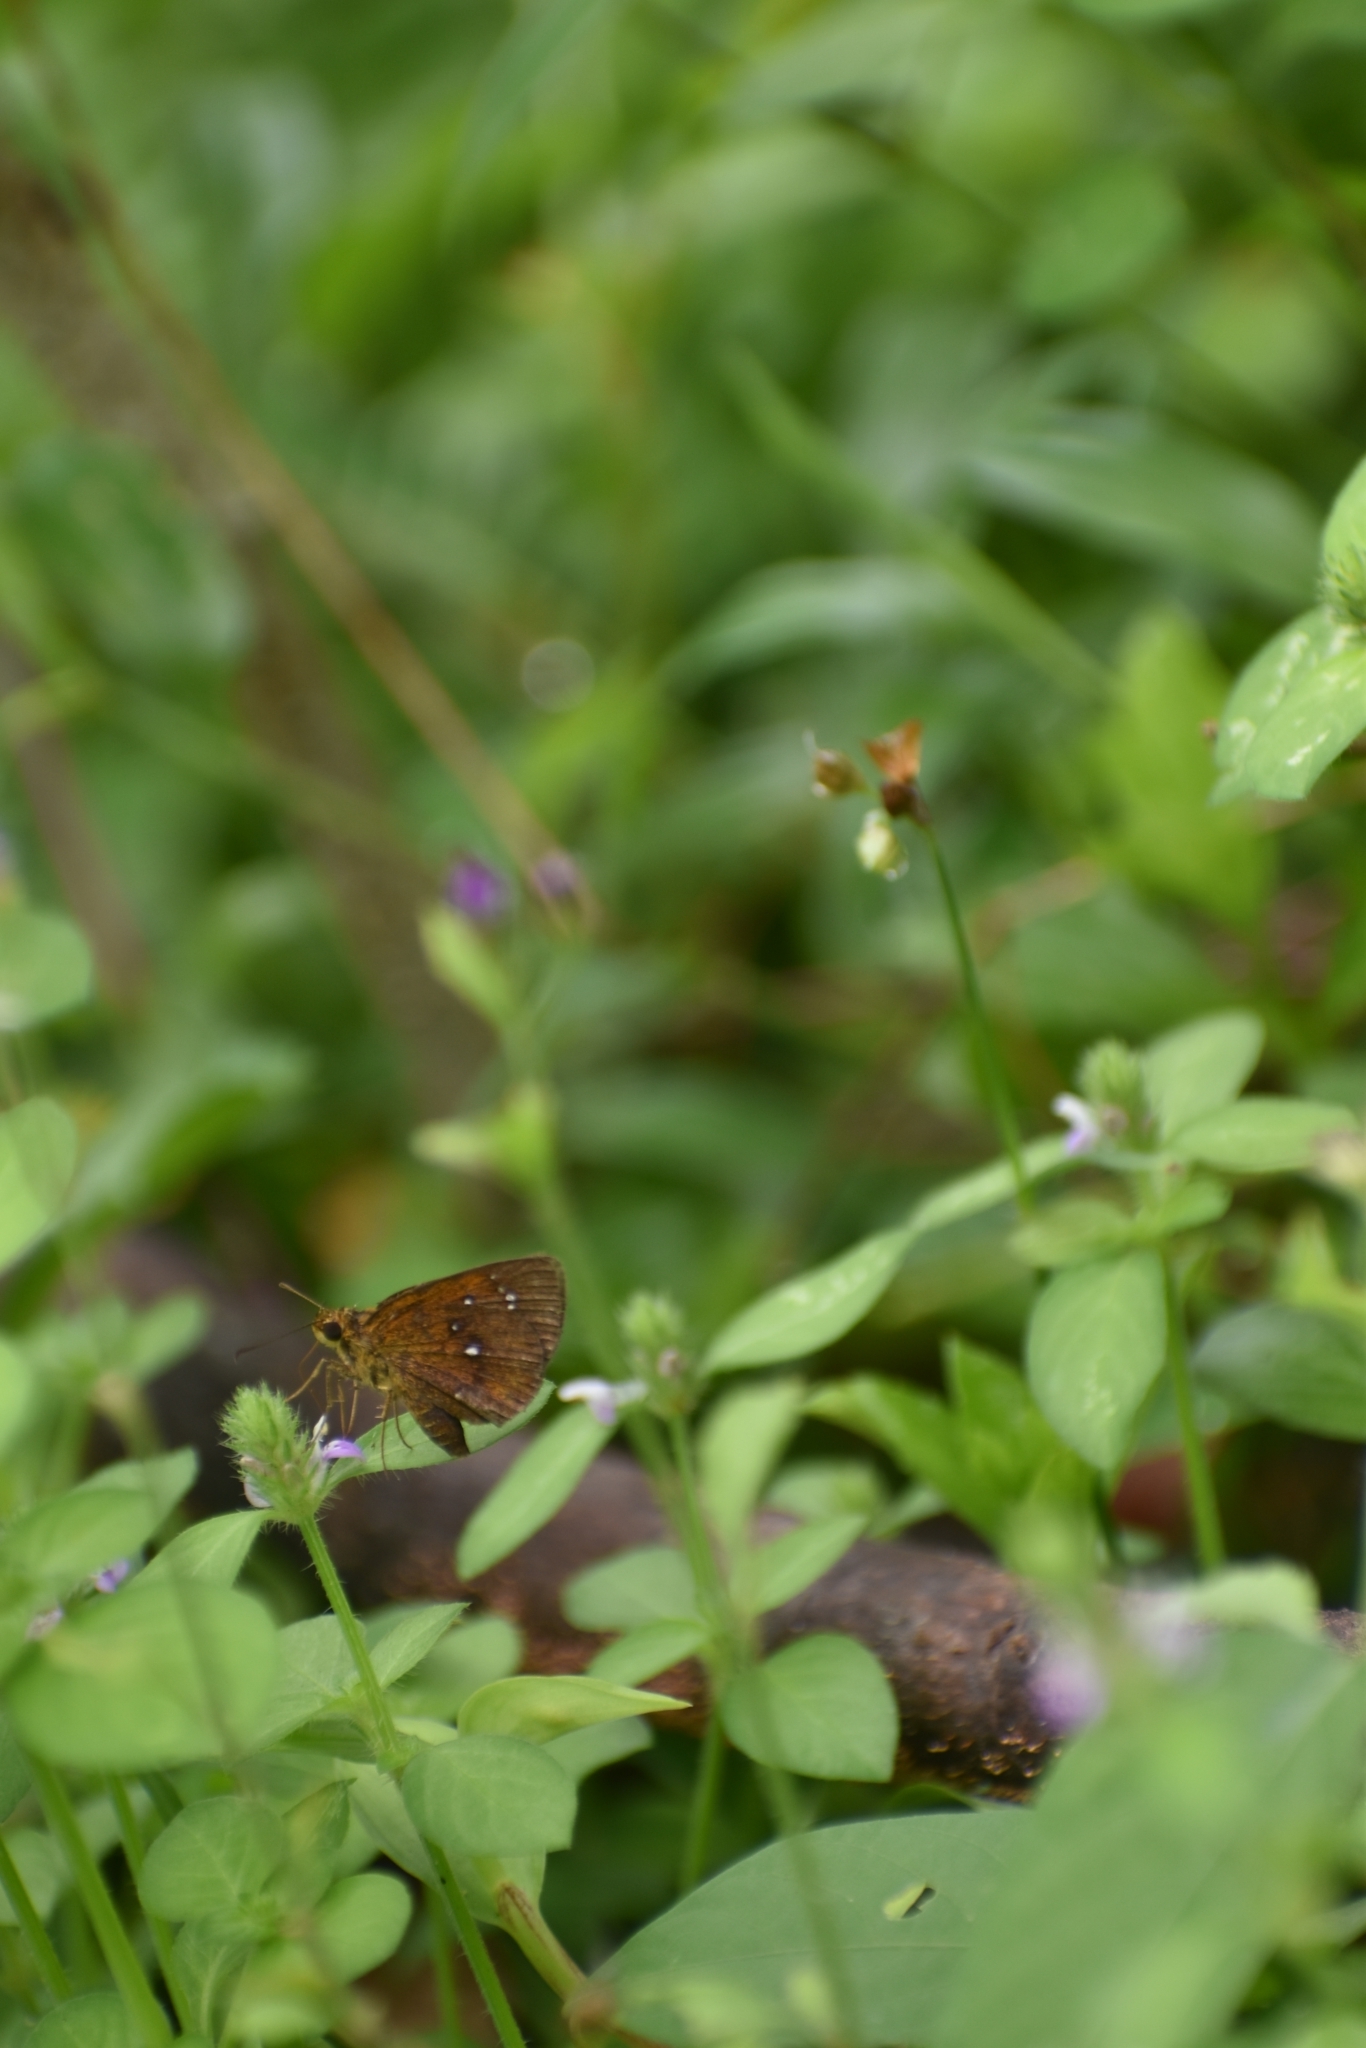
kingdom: Animalia
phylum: Arthropoda
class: Insecta
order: Lepidoptera
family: Hesperiidae
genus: Iambrix
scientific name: Iambrix salsala
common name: Chestnut bob
